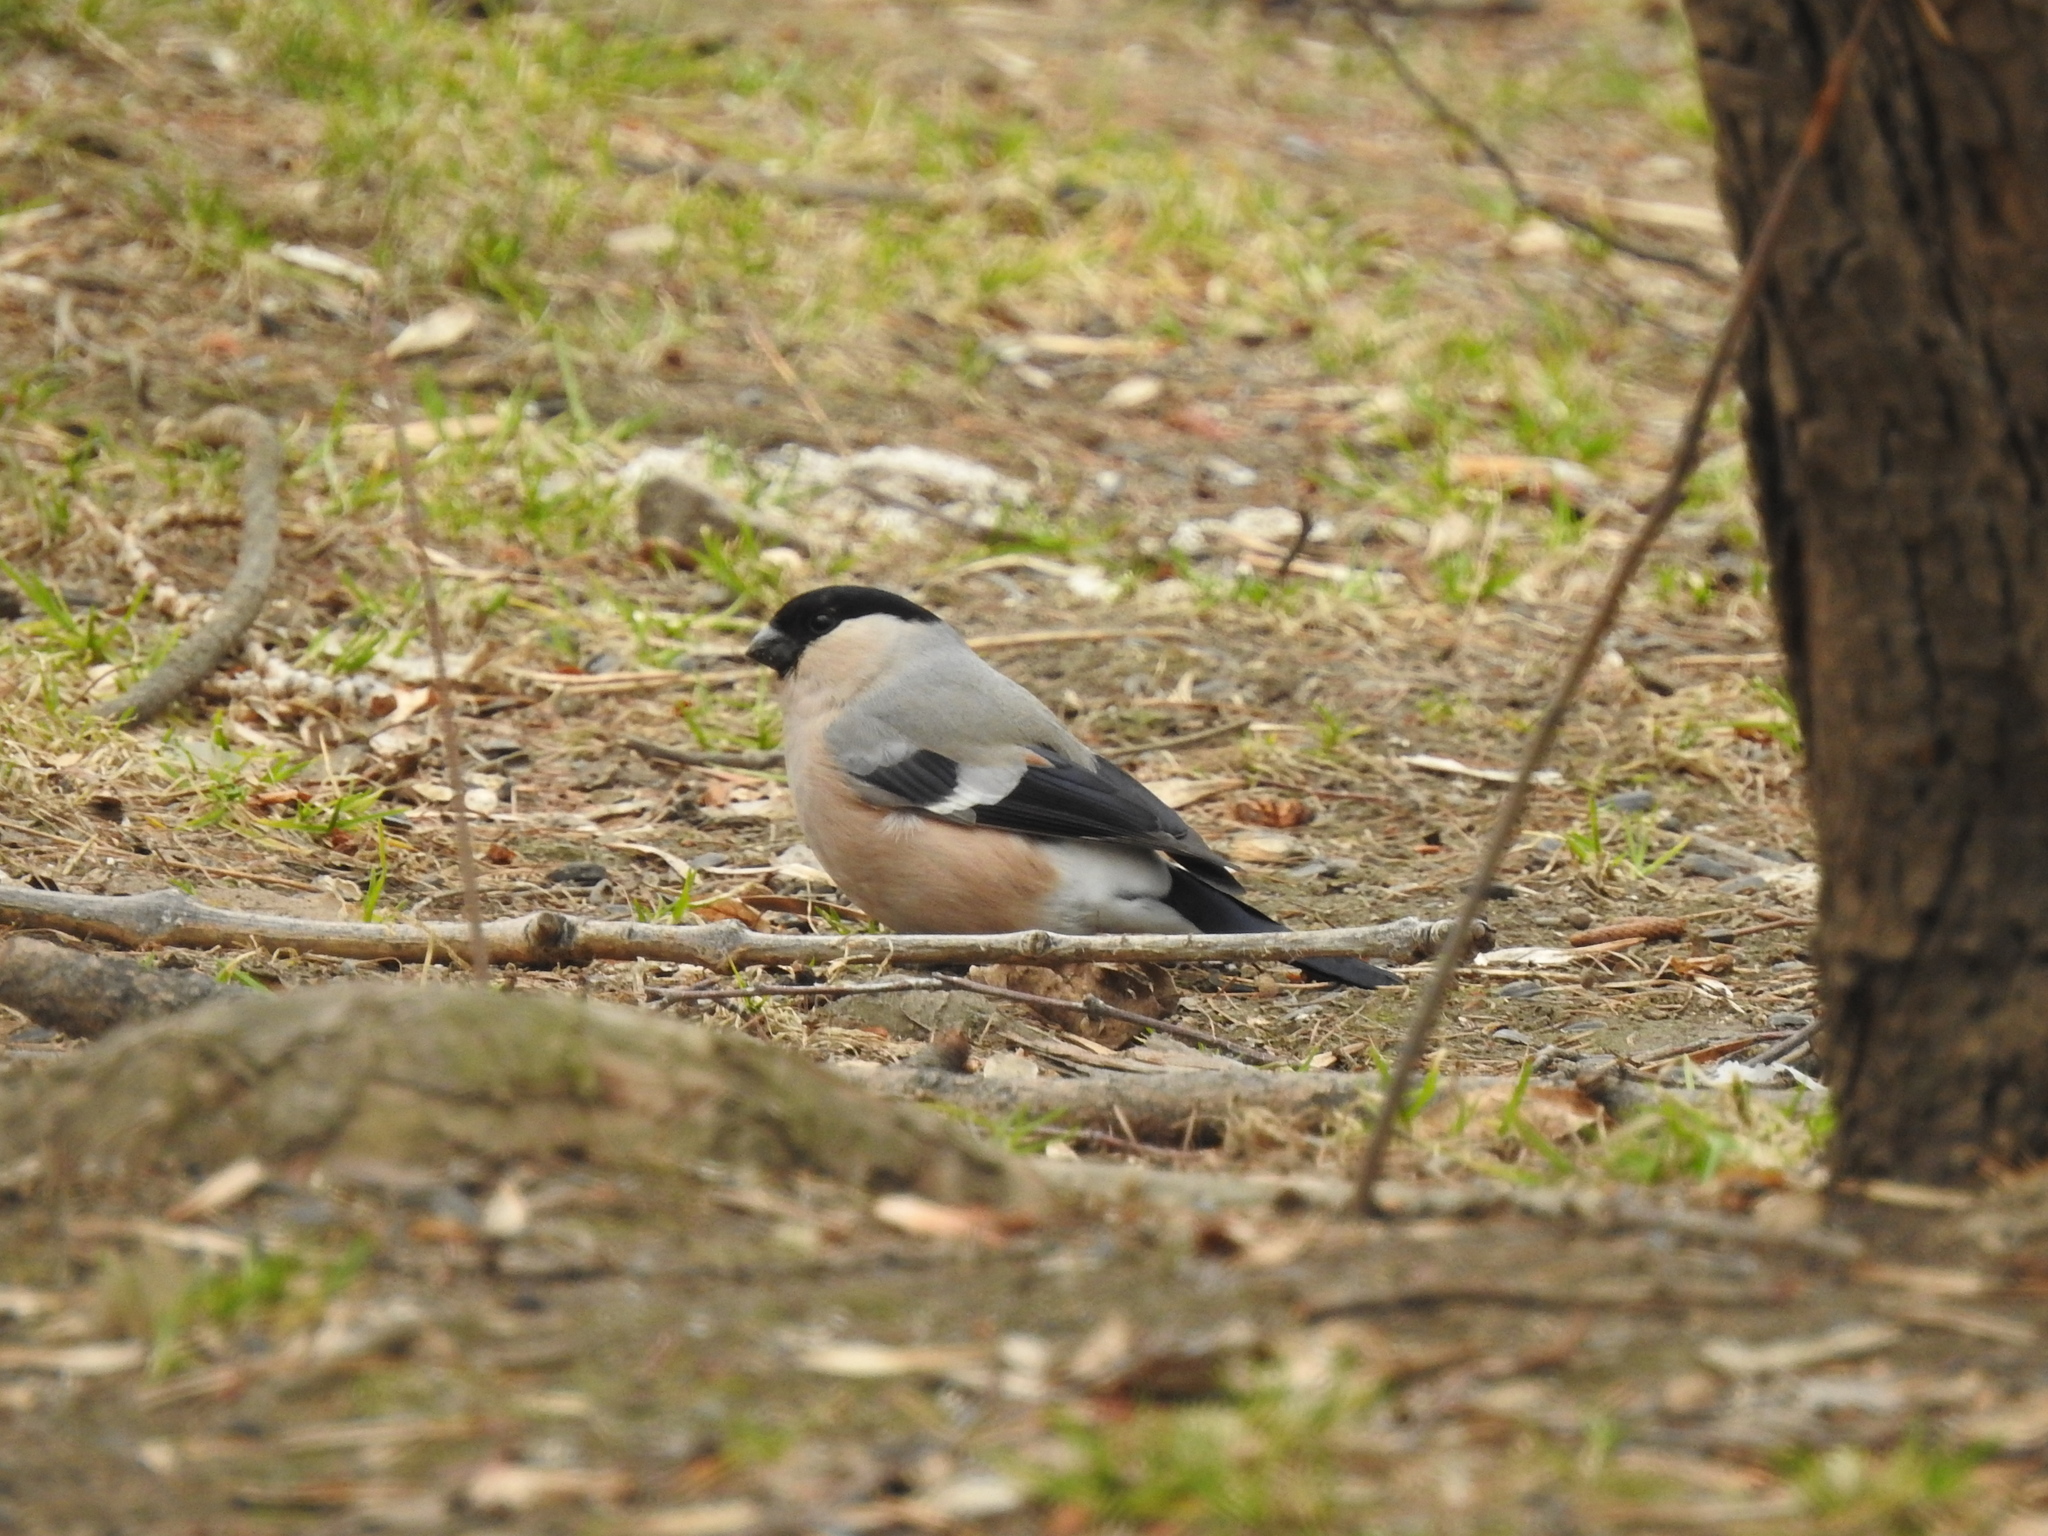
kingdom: Animalia
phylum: Chordata
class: Aves
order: Passeriformes
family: Fringillidae
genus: Pyrrhula
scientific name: Pyrrhula pyrrhula
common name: Eurasian bullfinch
